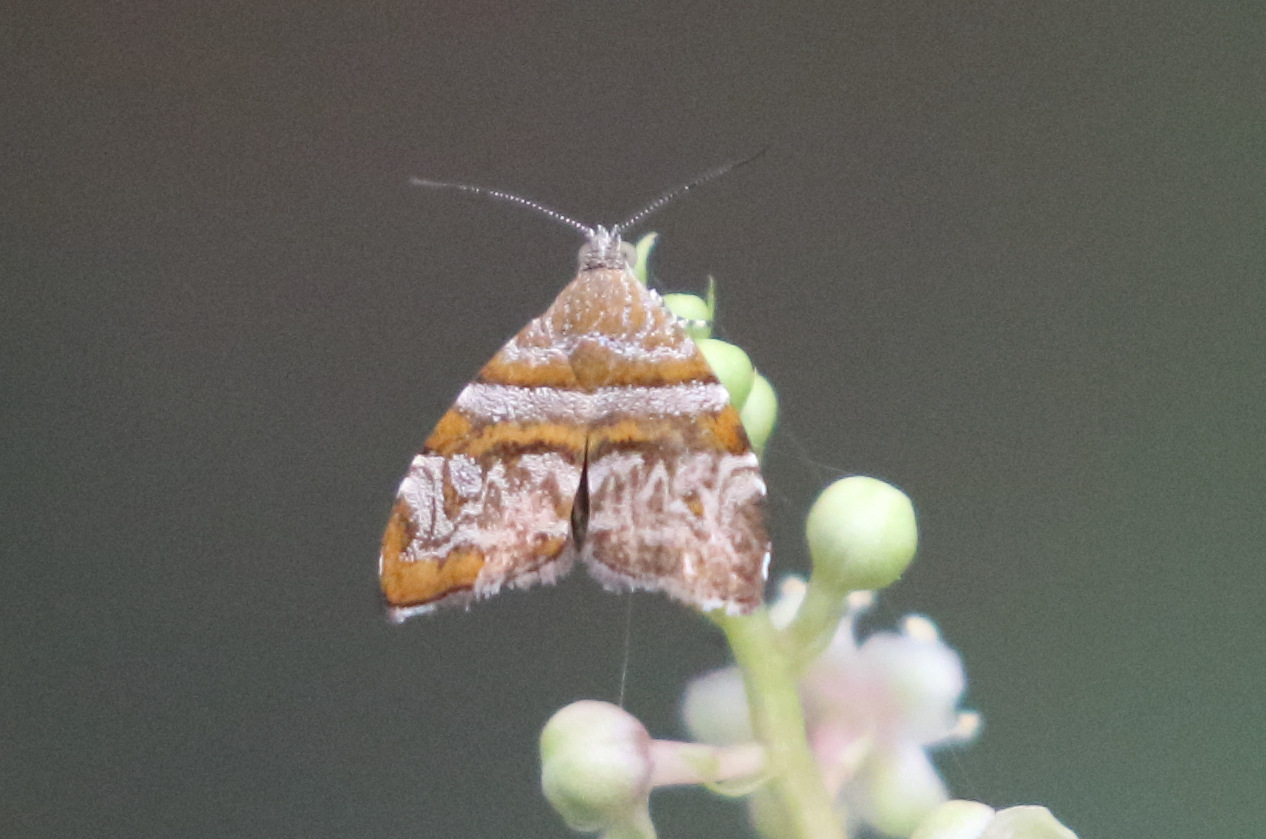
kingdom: Animalia
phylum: Arthropoda
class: Insecta
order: Lepidoptera
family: Choreutidae
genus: Choreutis
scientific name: Choreutis periploca
